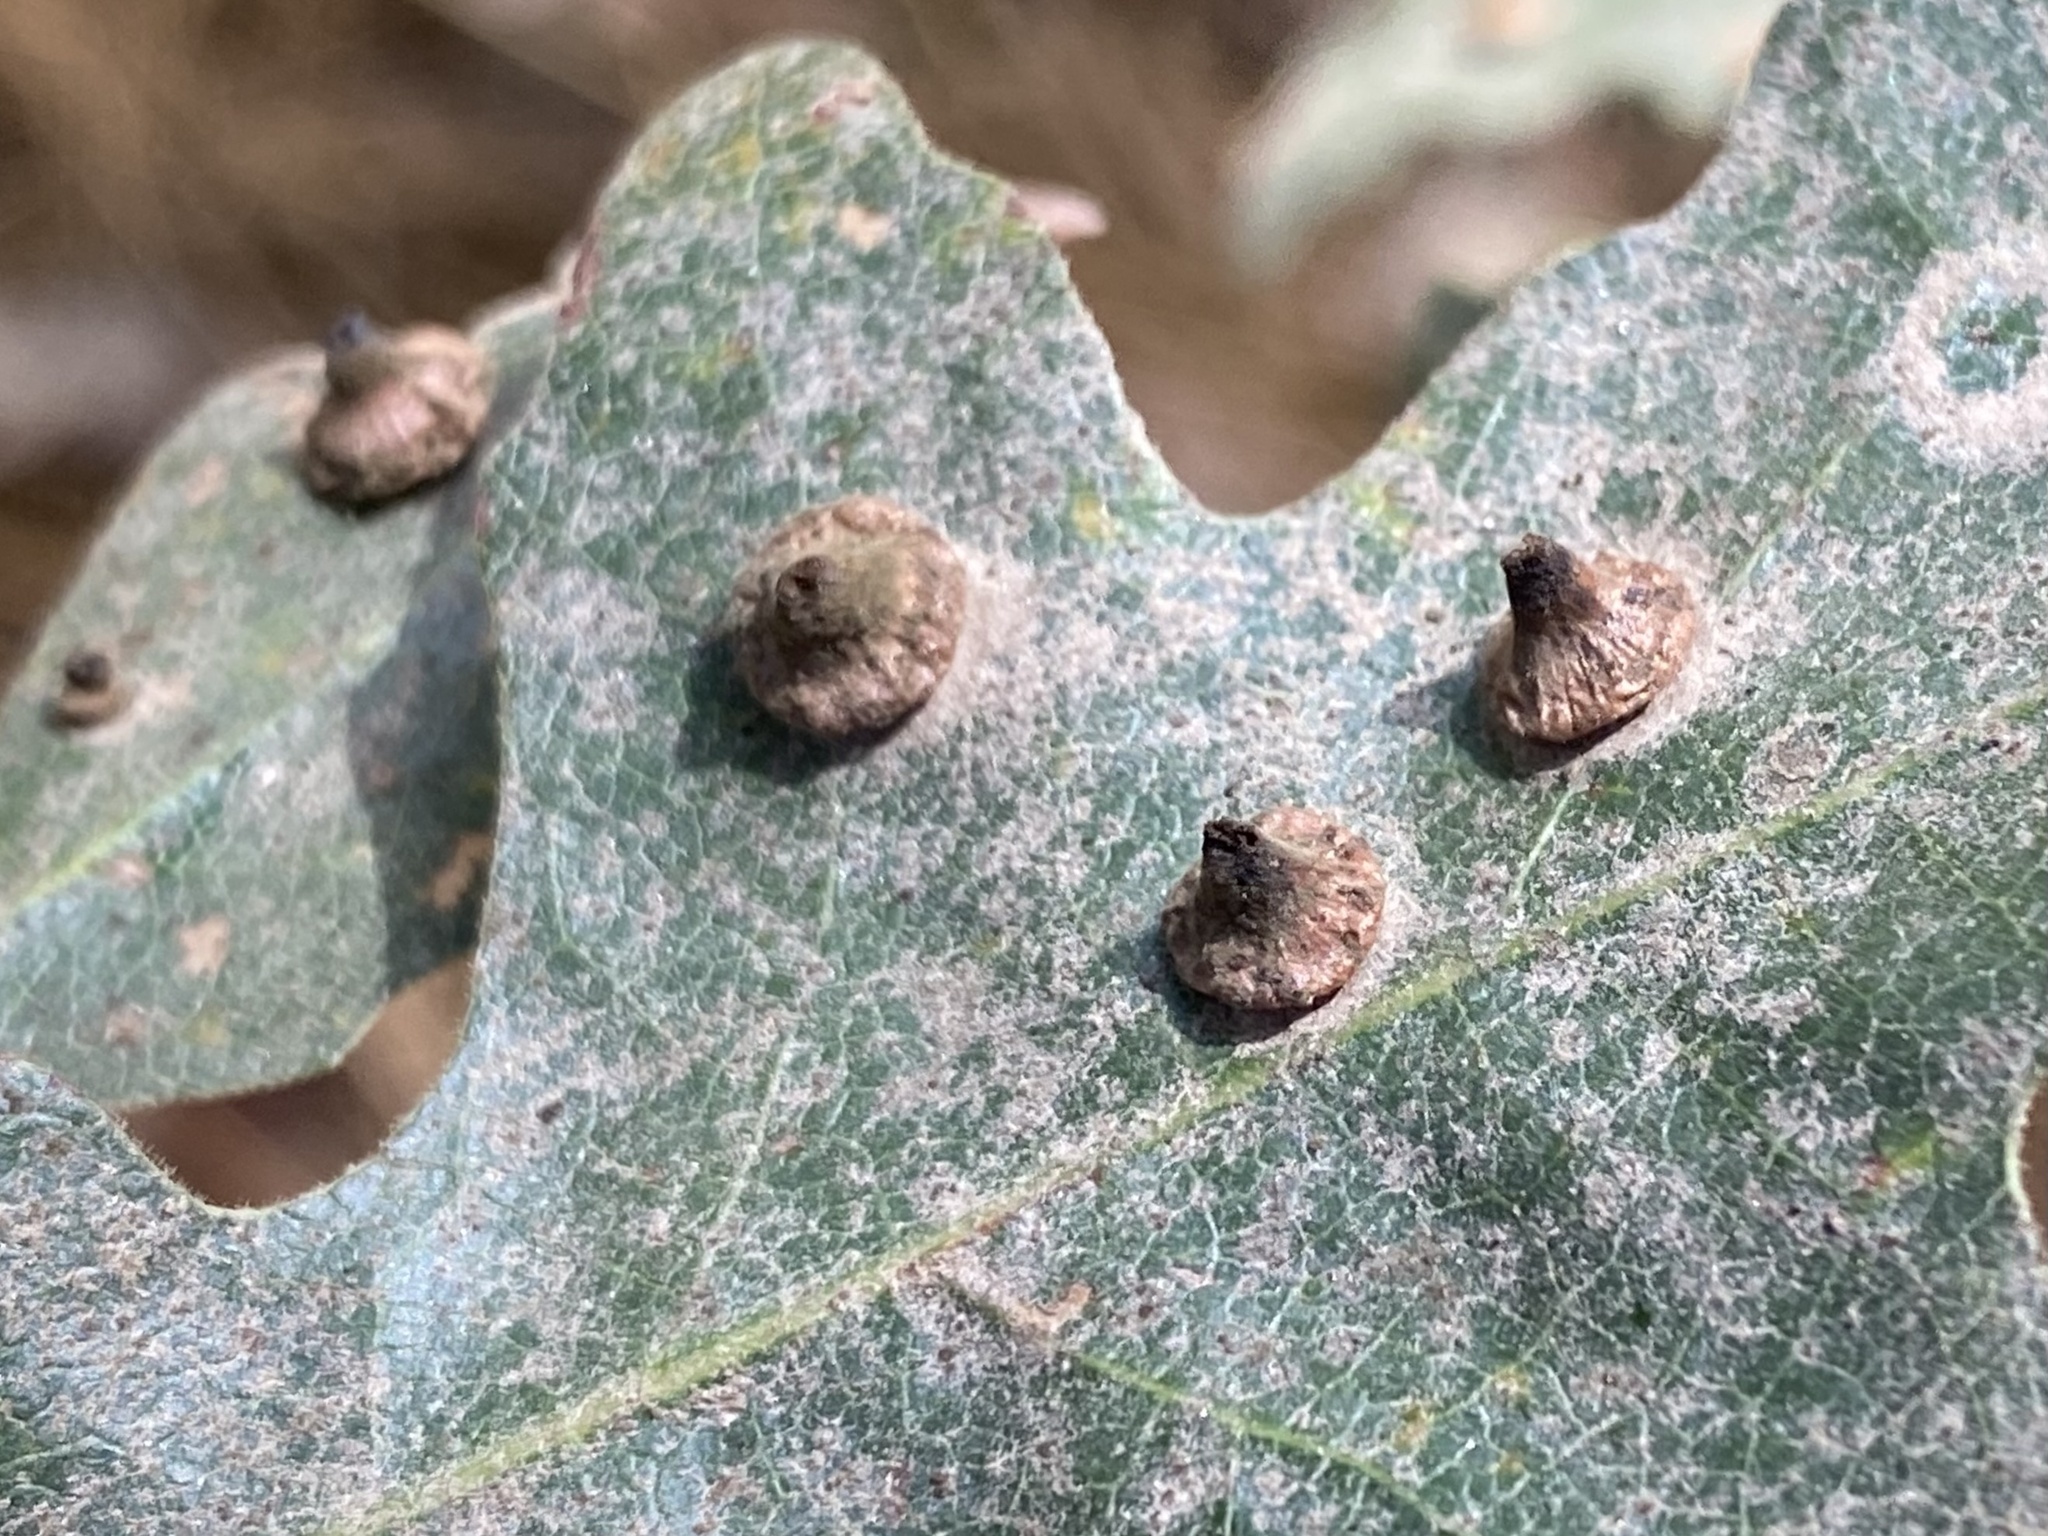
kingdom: Animalia
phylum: Arthropoda
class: Insecta
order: Hymenoptera
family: Cynipidae
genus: Andricus
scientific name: Andricus
